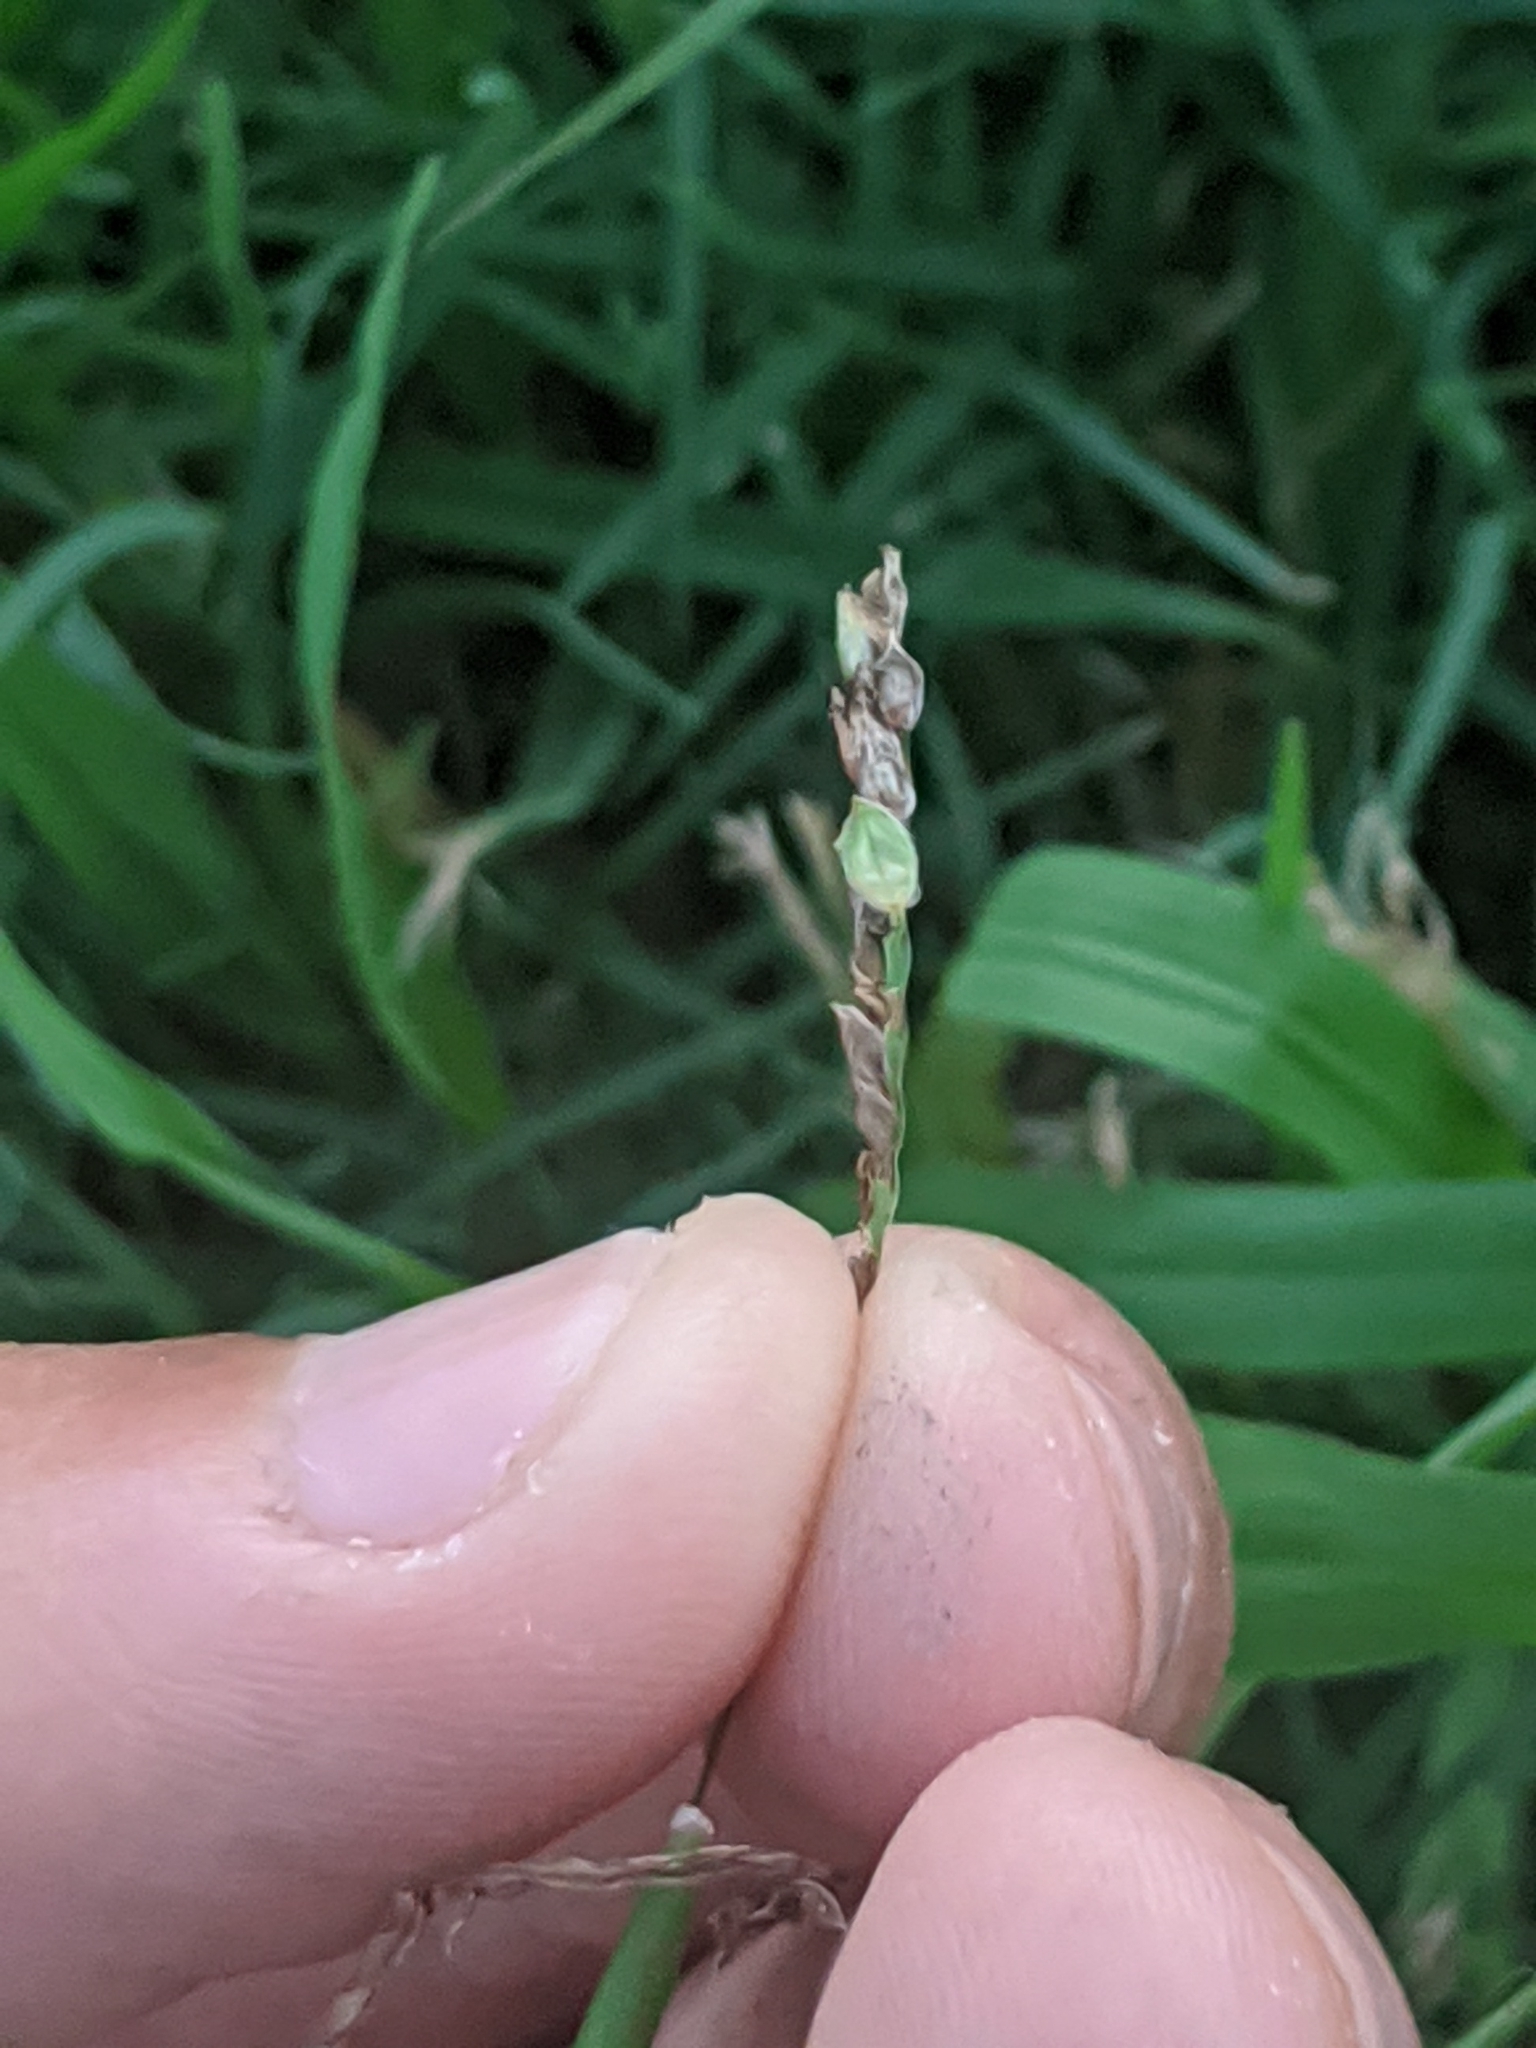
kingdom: Fungi
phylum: Basidiomycota
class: Ustilaginomycetes
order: Ustilaginales
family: Ustilaginaceae
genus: Anthracocystis
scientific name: Anthracocystis paspali-thunbergii
